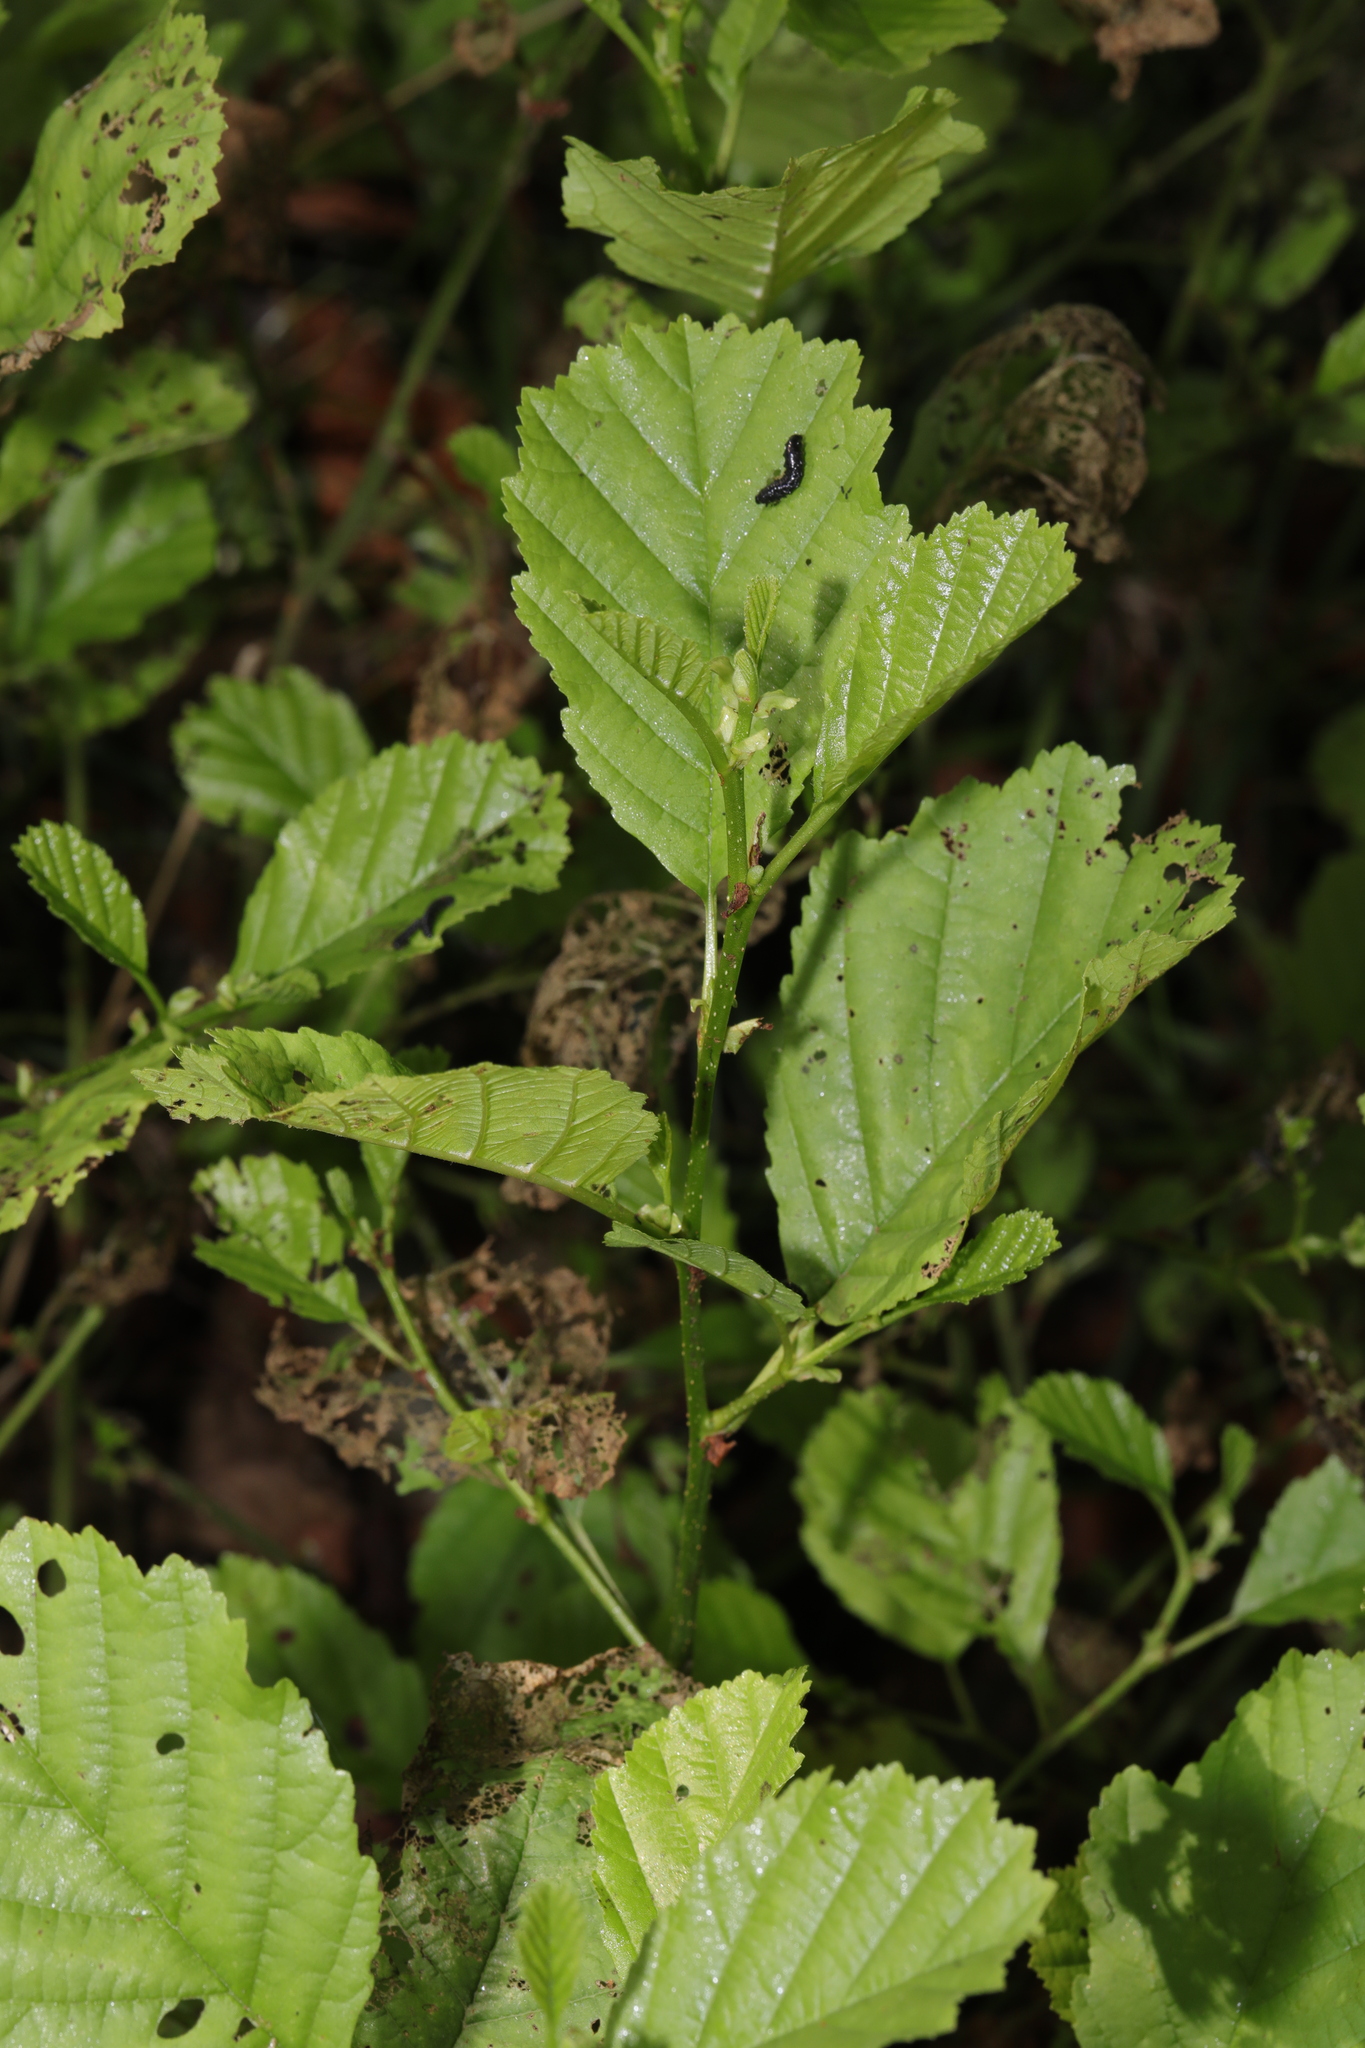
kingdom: Plantae
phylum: Tracheophyta
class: Magnoliopsida
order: Fagales
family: Betulaceae
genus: Alnus
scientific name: Alnus glutinosa
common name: Black alder
